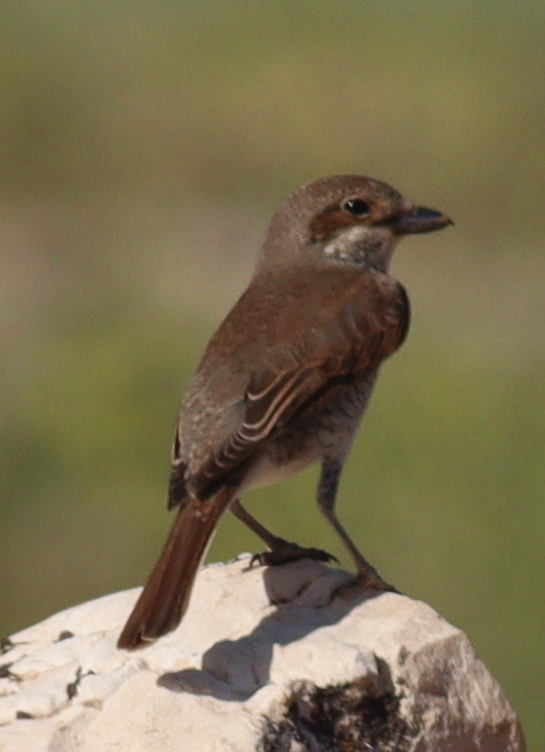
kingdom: Animalia
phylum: Chordata
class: Aves
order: Passeriformes
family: Laniidae
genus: Lanius
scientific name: Lanius collurio
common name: Red-backed shrike
